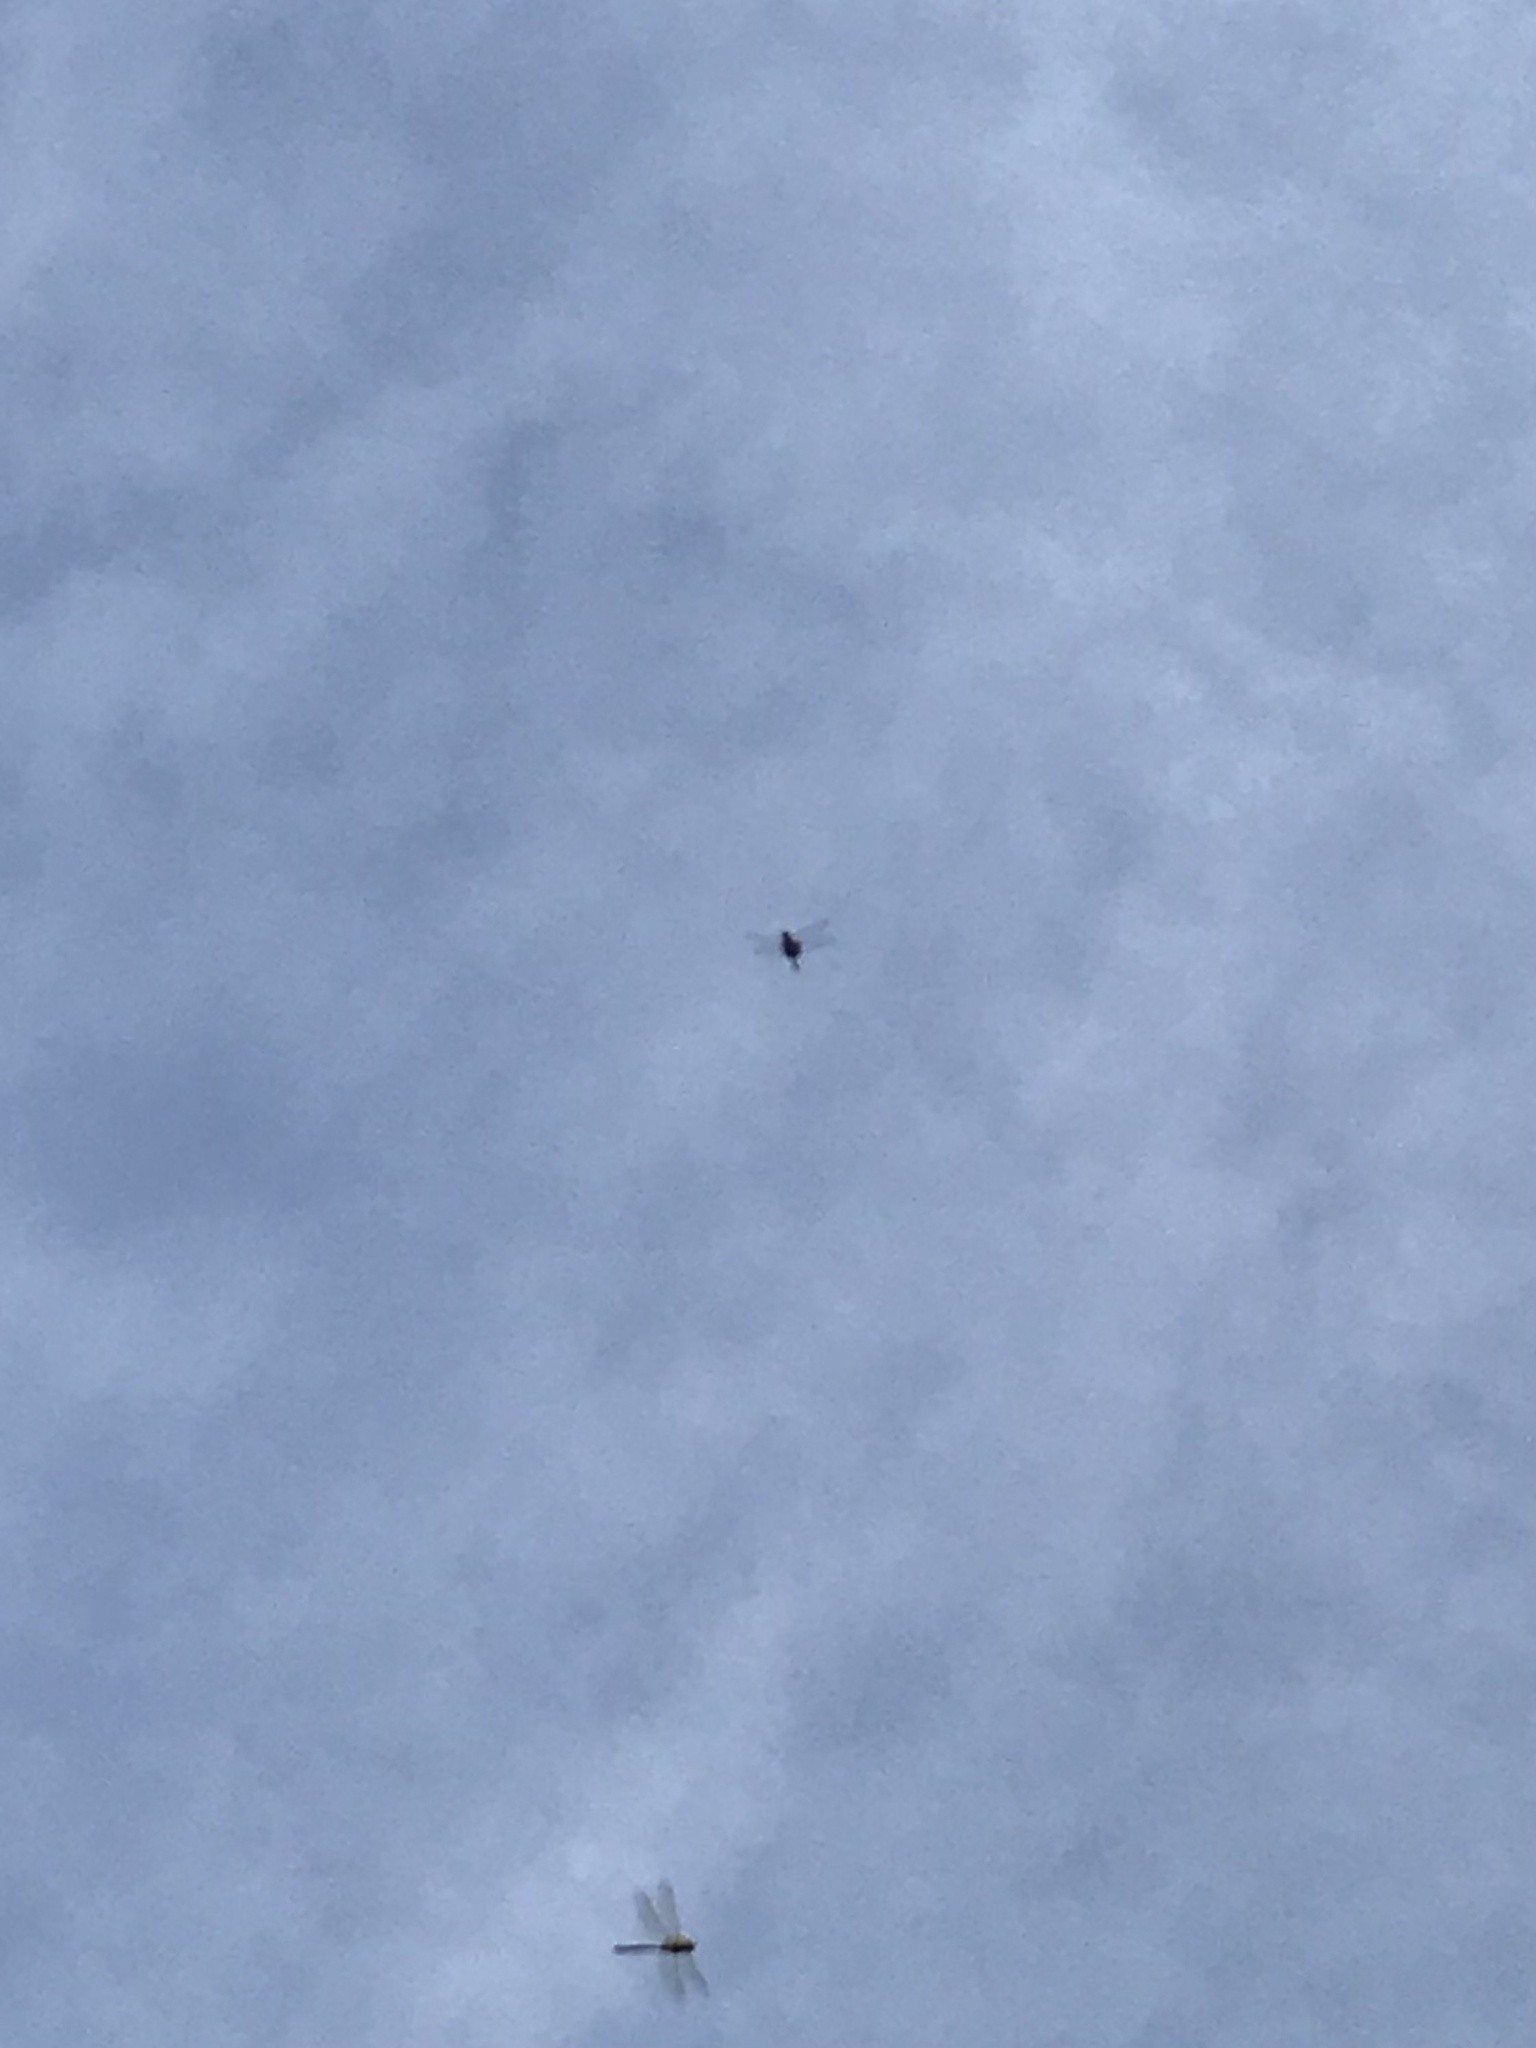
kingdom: Animalia
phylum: Arthropoda
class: Insecta
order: Odonata
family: Libellulidae
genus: Tramea
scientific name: Tramea lacerata
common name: Black saddlebags
